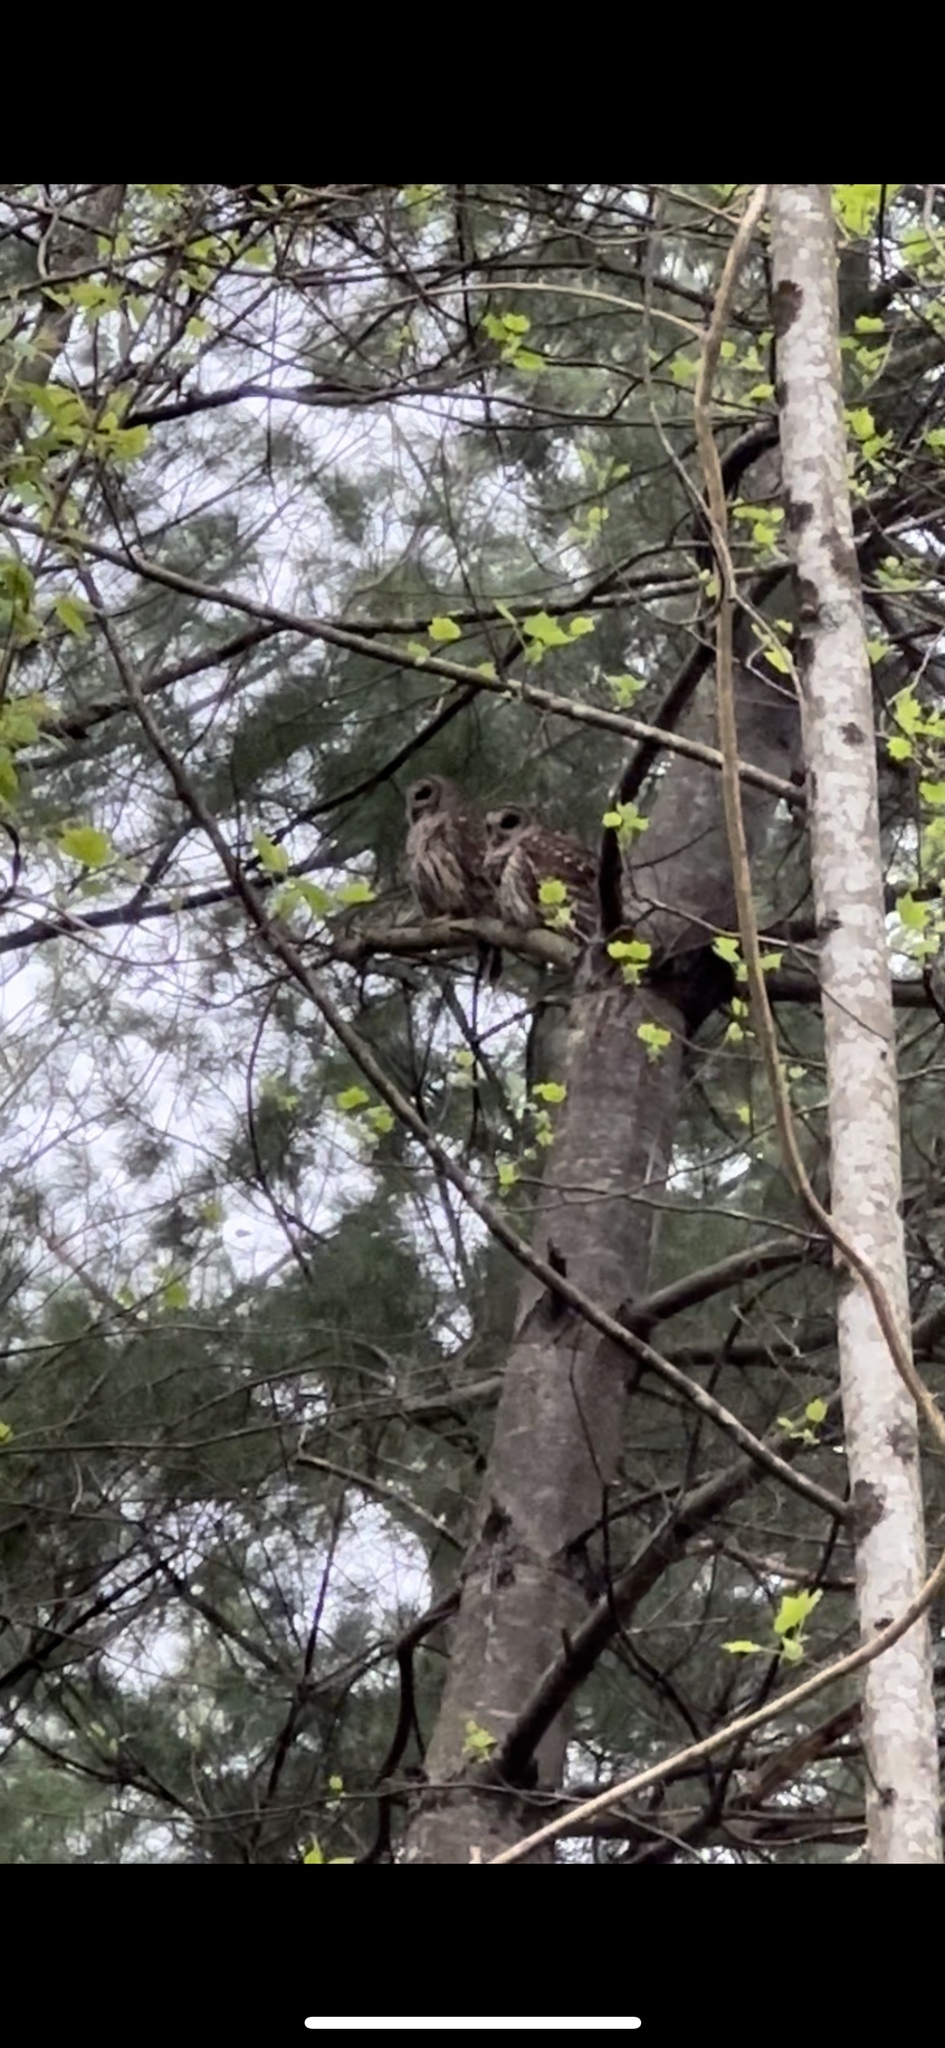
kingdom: Animalia
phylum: Chordata
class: Aves
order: Strigiformes
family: Strigidae
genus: Strix
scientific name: Strix varia
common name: Barred owl
